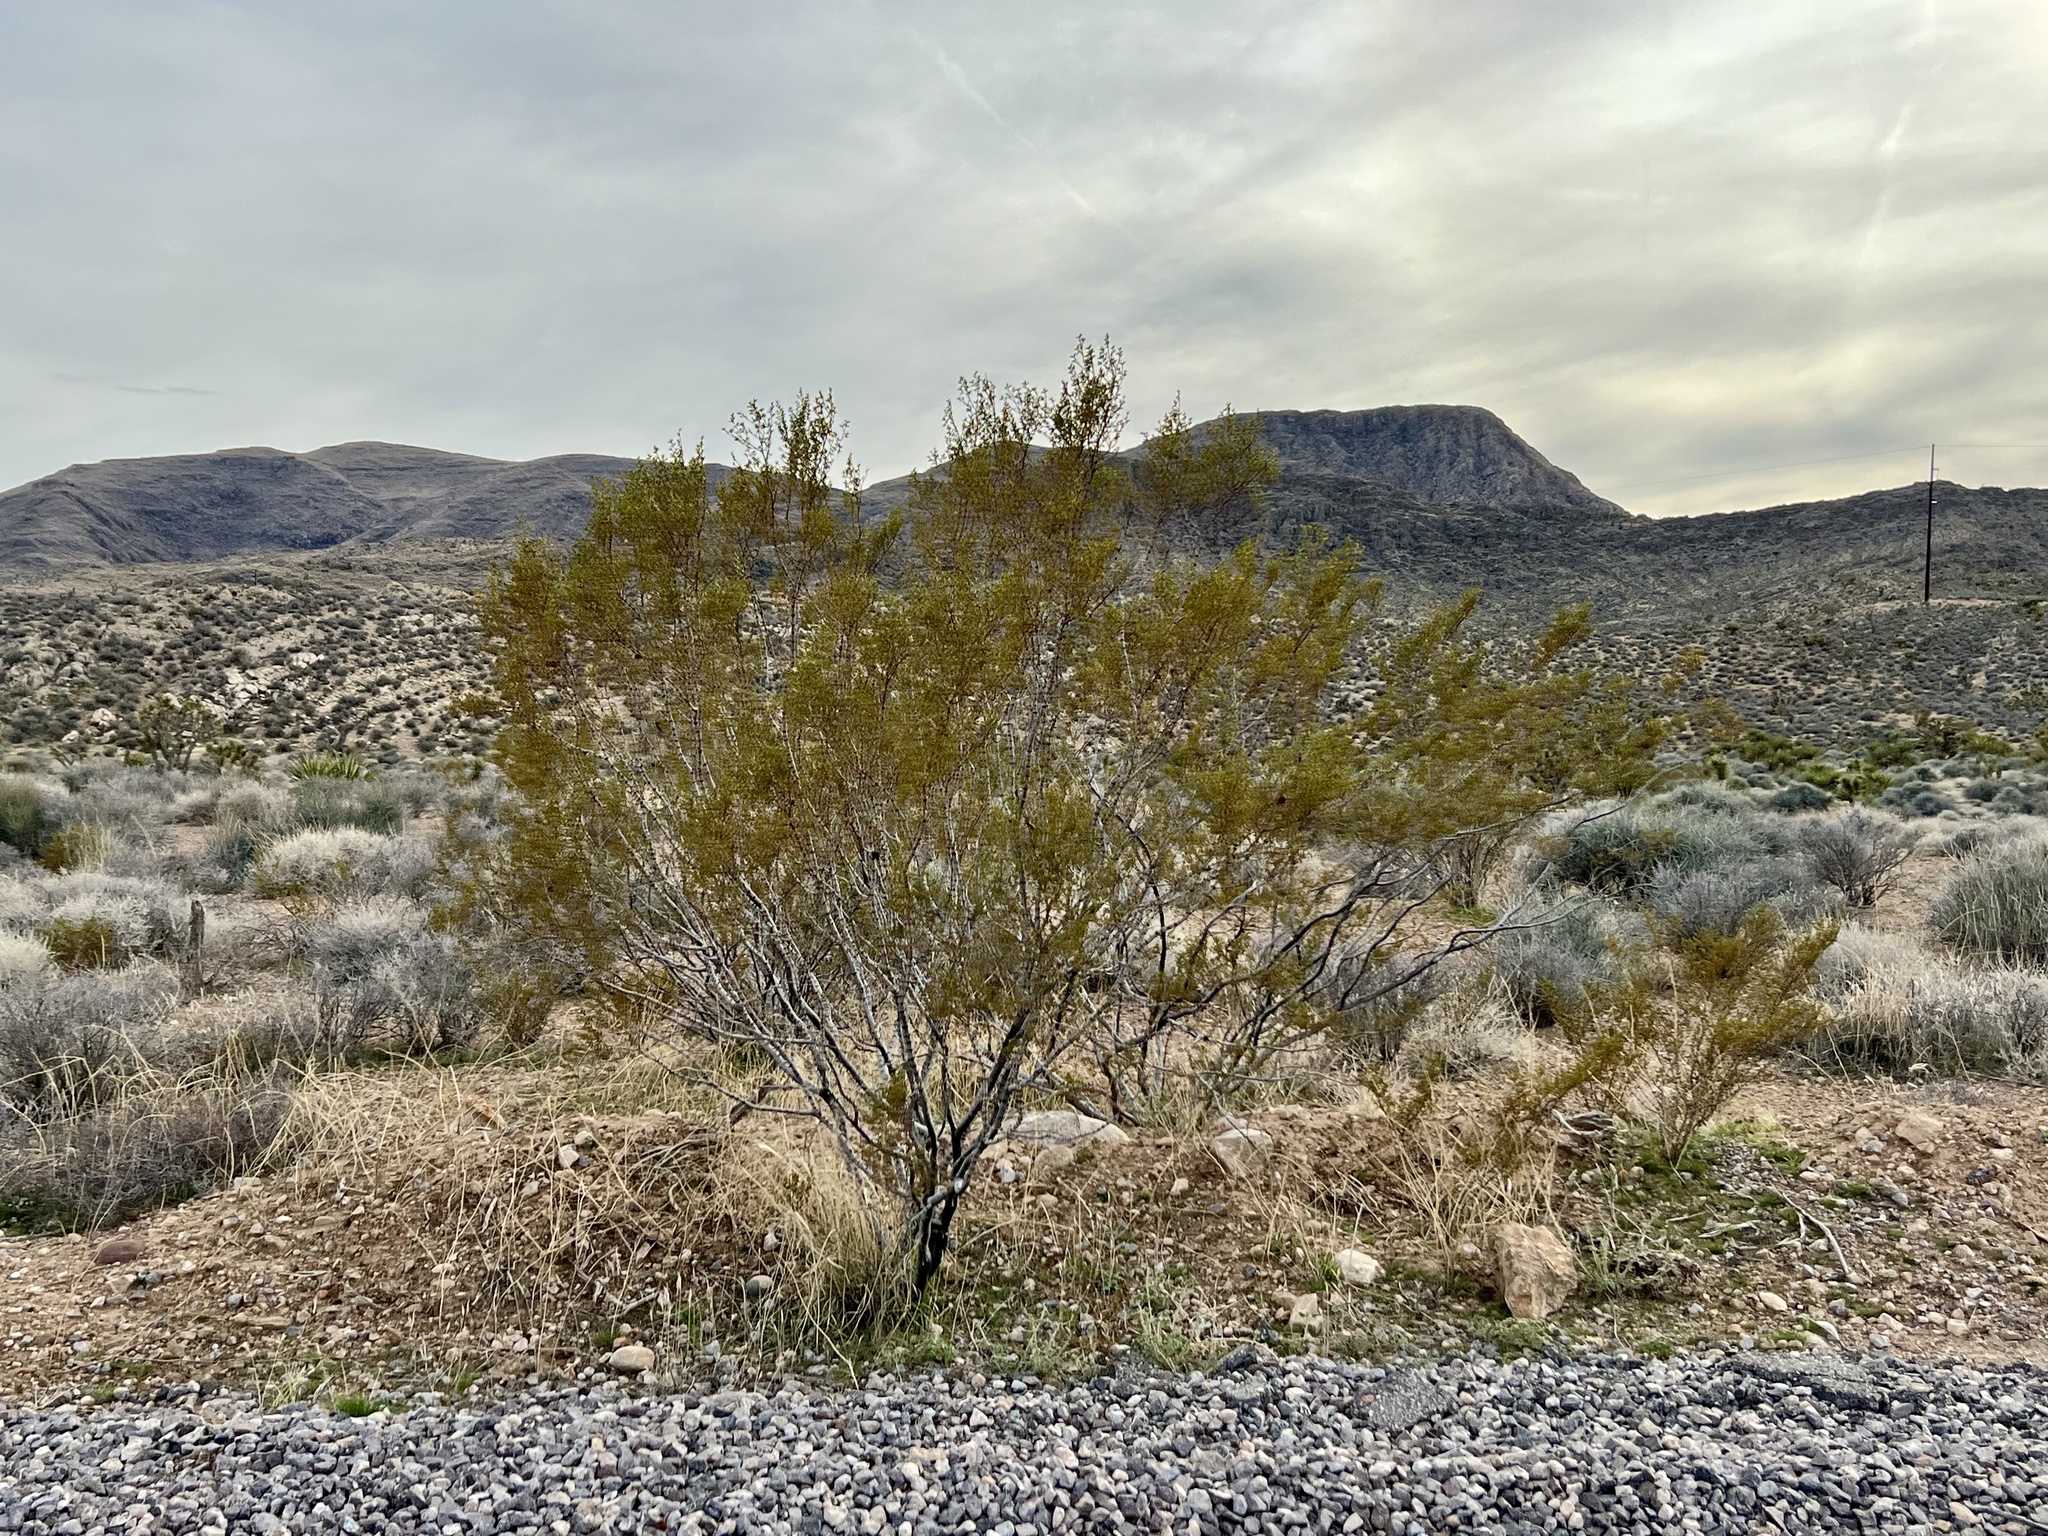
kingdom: Plantae
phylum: Tracheophyta
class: Magnoliopsida
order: Zygophyllales
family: Zygophyllaceae
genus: Larrea
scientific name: Larrea tridentata
